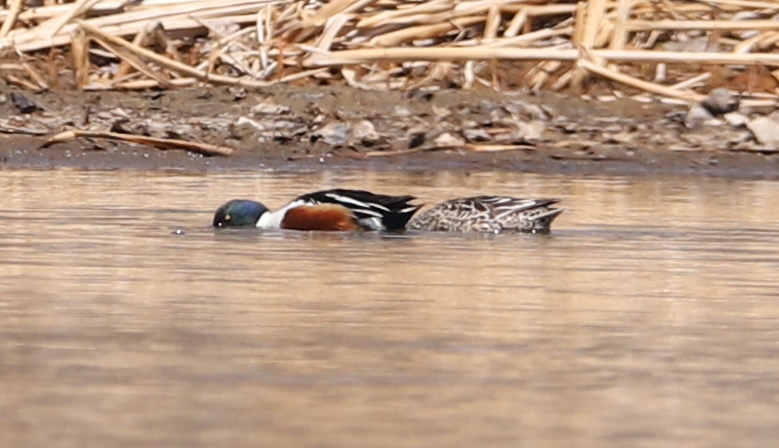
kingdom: Animalia
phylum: Chordata
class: Aves
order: Anseriformes
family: Anatidae
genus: Spatula
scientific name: Spatula clypeata
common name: Northern shoveler
